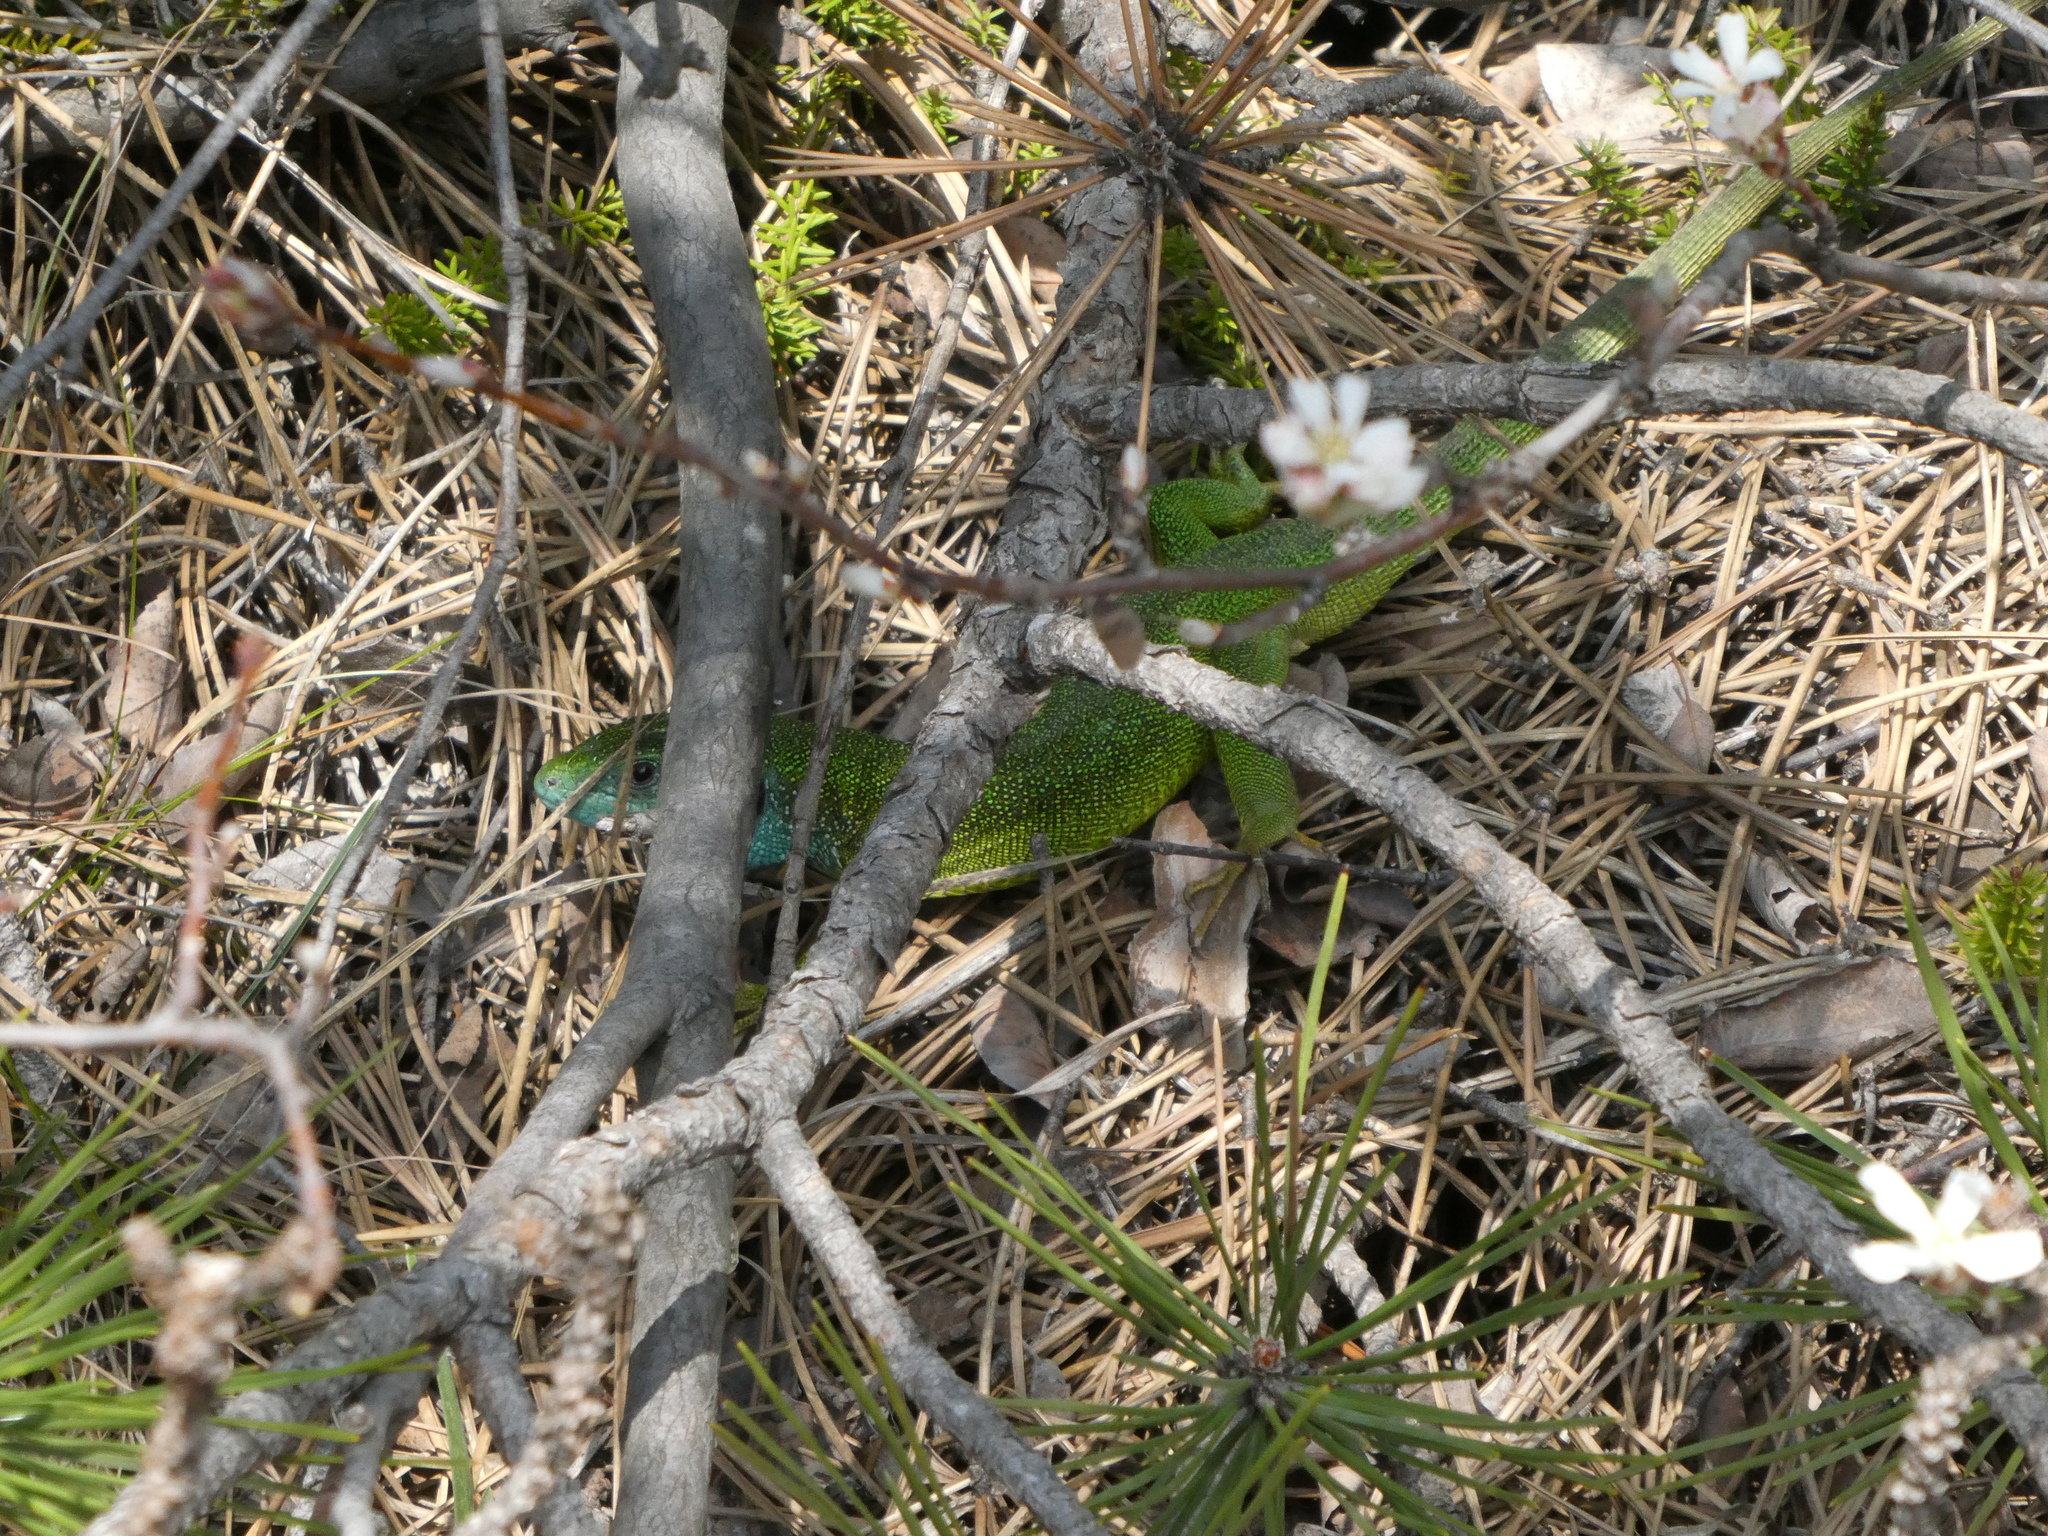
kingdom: Animalia
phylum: Chordata
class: Squamata
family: Lacertidae
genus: Lacerta
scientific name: Lacerta viridis
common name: European green lizard
